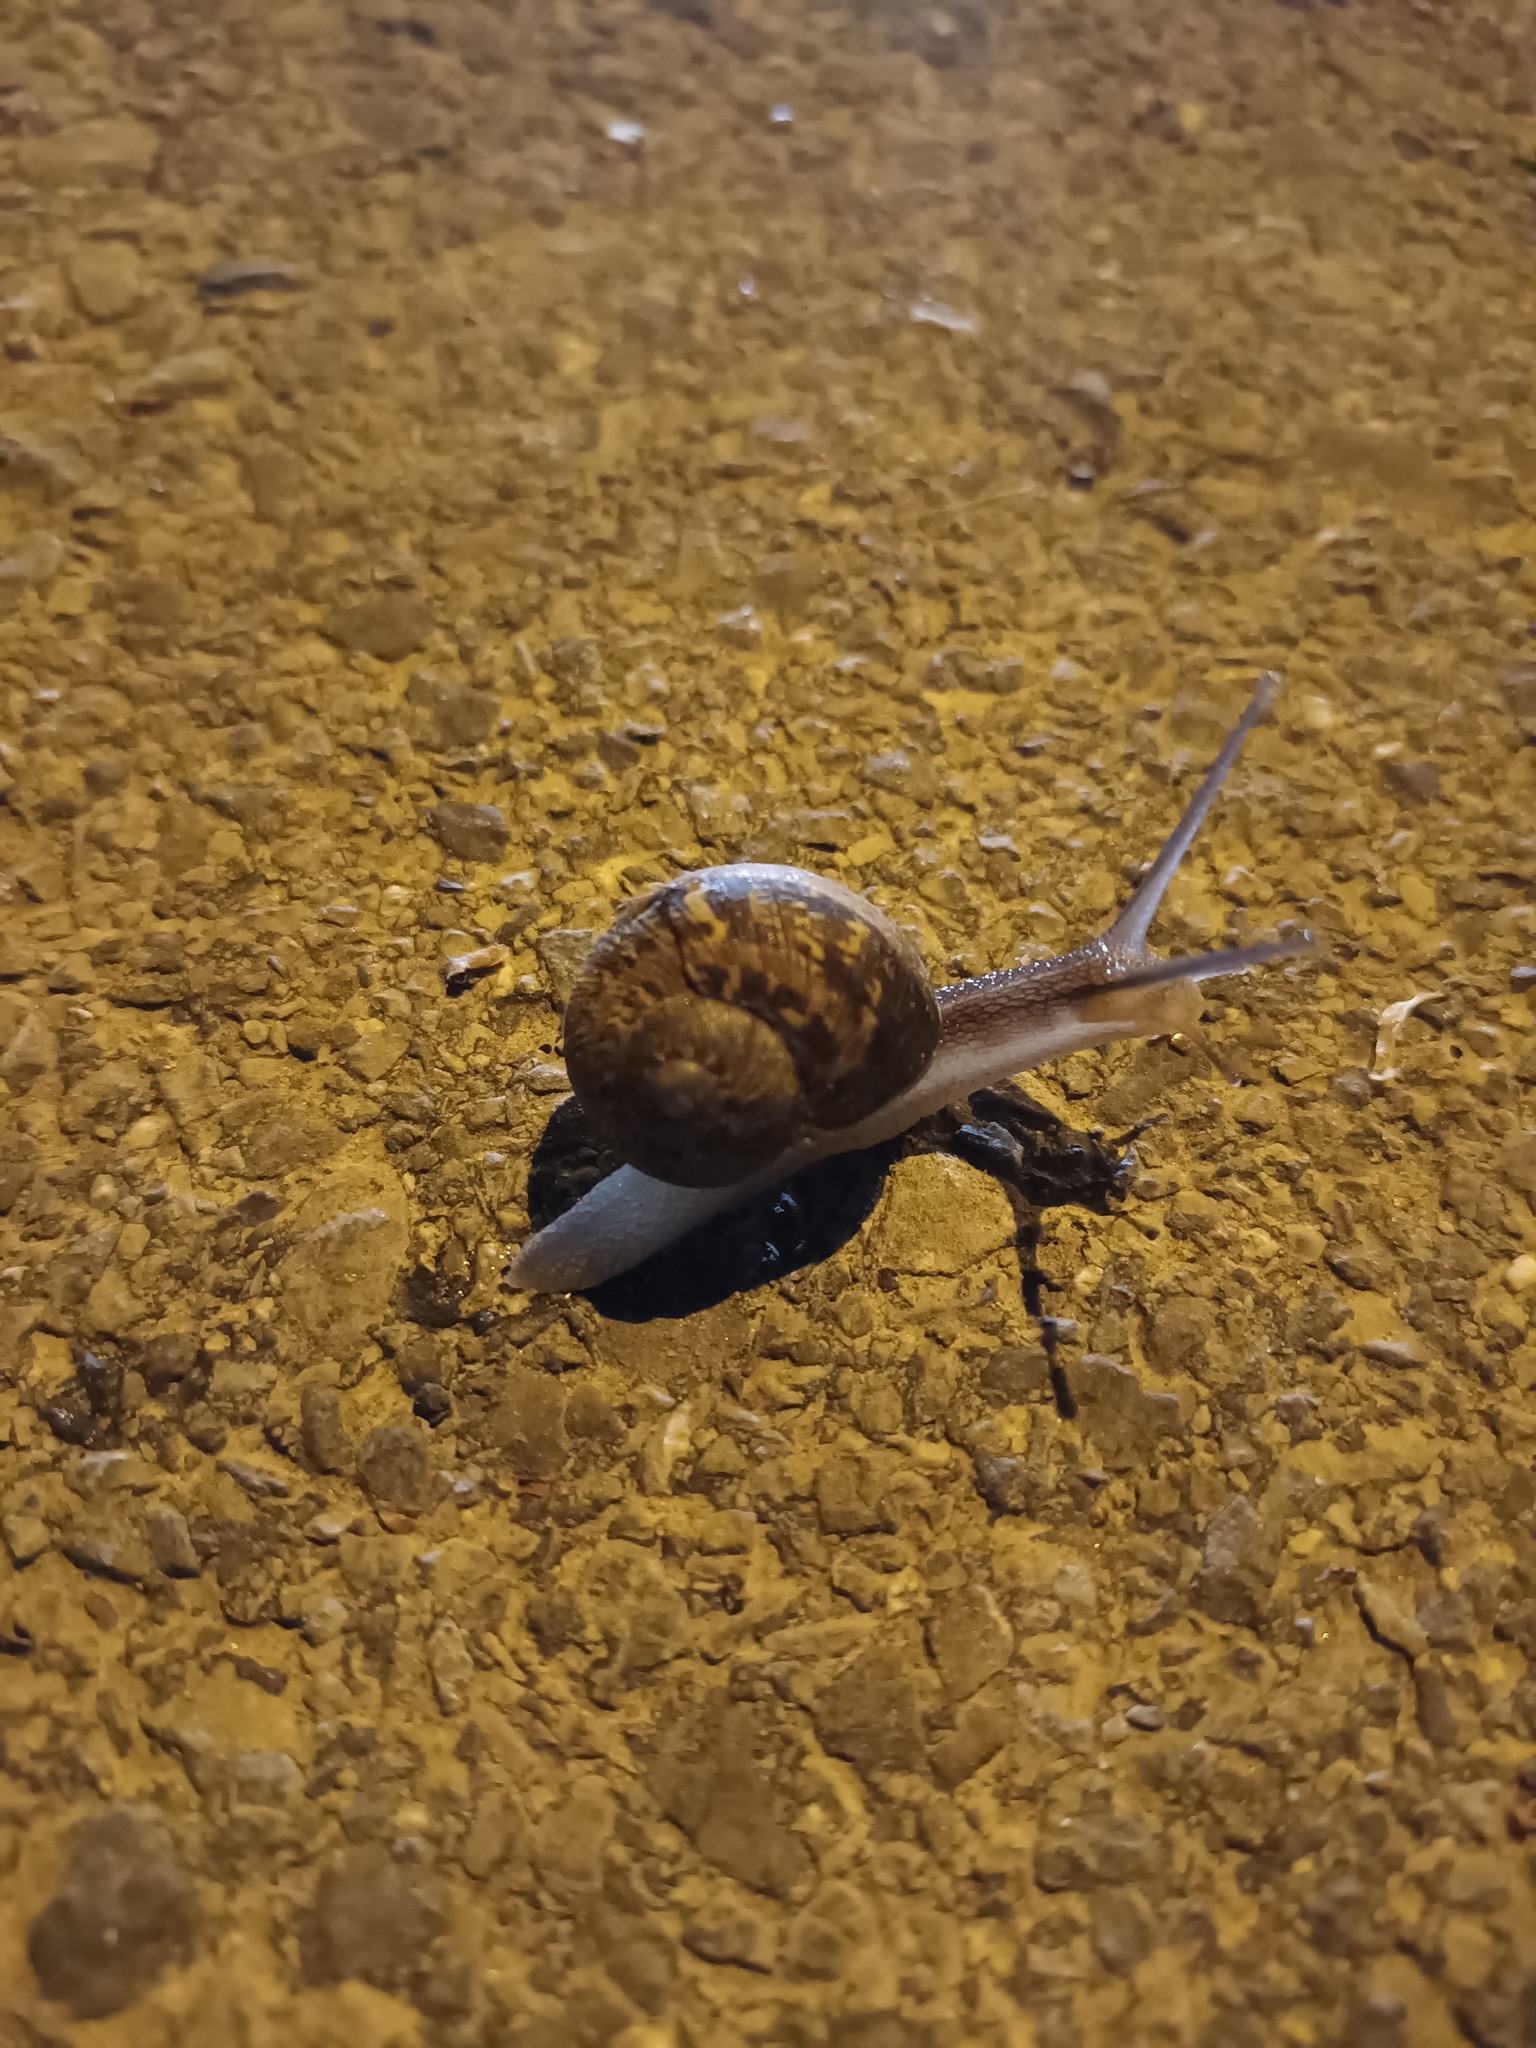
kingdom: Animalia
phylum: Mollusca
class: Gastropoda
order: Stylommatophora
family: Helicidae
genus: Cornu
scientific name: Cornu aspersum
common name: Brown garden snail
